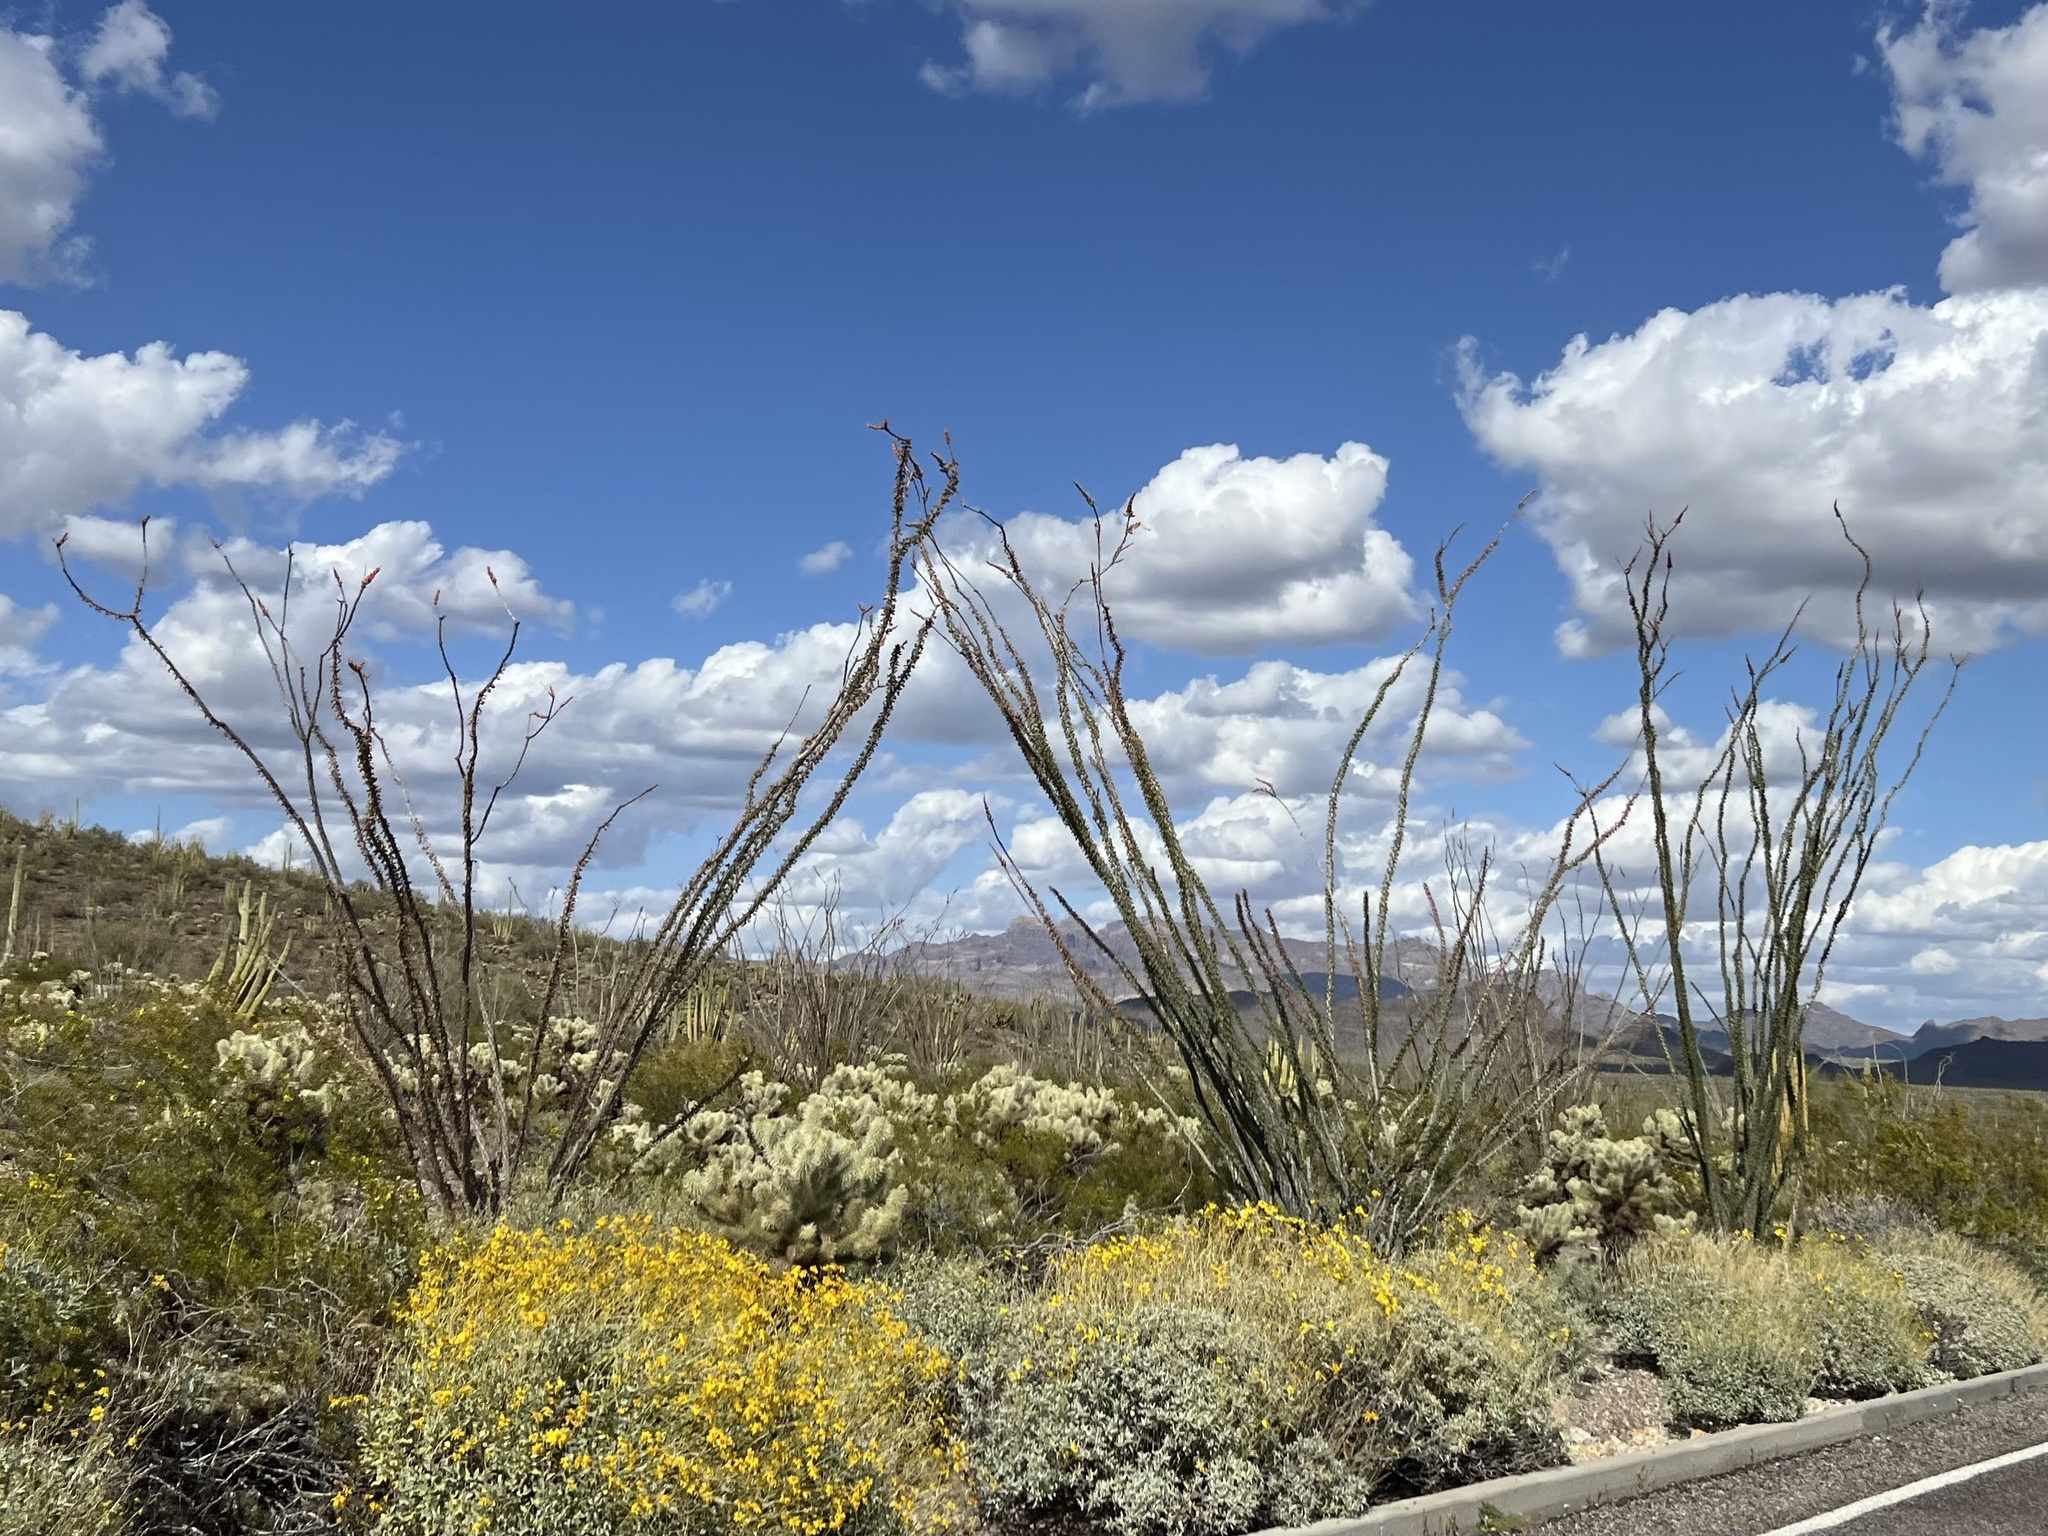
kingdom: Plantae
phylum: Tracheophyta
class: Magnoliopsida
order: Ericales
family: Fouquieriaceae
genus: Fouquieria
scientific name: Fouquieria splendens
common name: Vine-cactus
